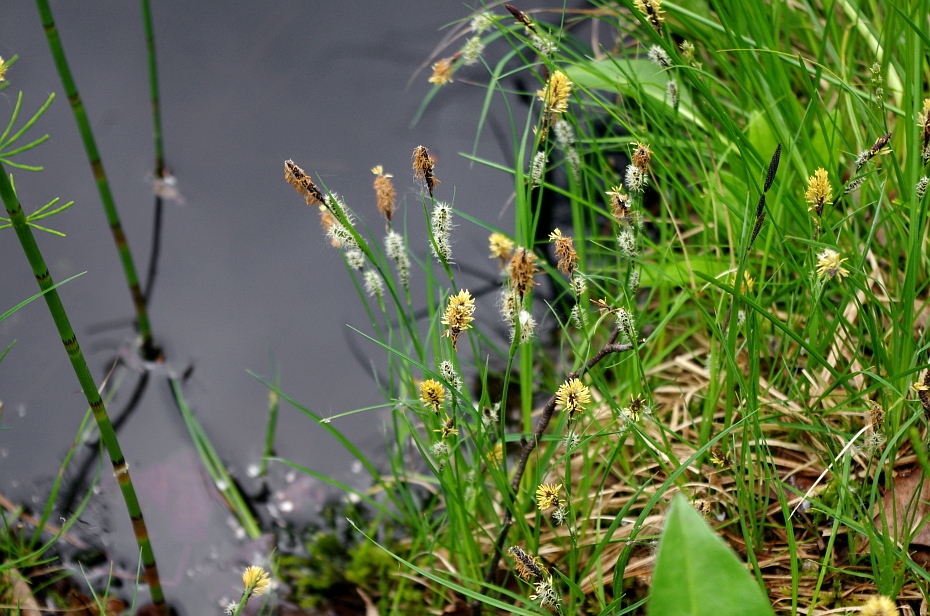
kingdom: Plantae
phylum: Tracheophyta
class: Liliopsida
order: Poales
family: Cyperaceae
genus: Carex
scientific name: Carex nigra
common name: Common sedge
